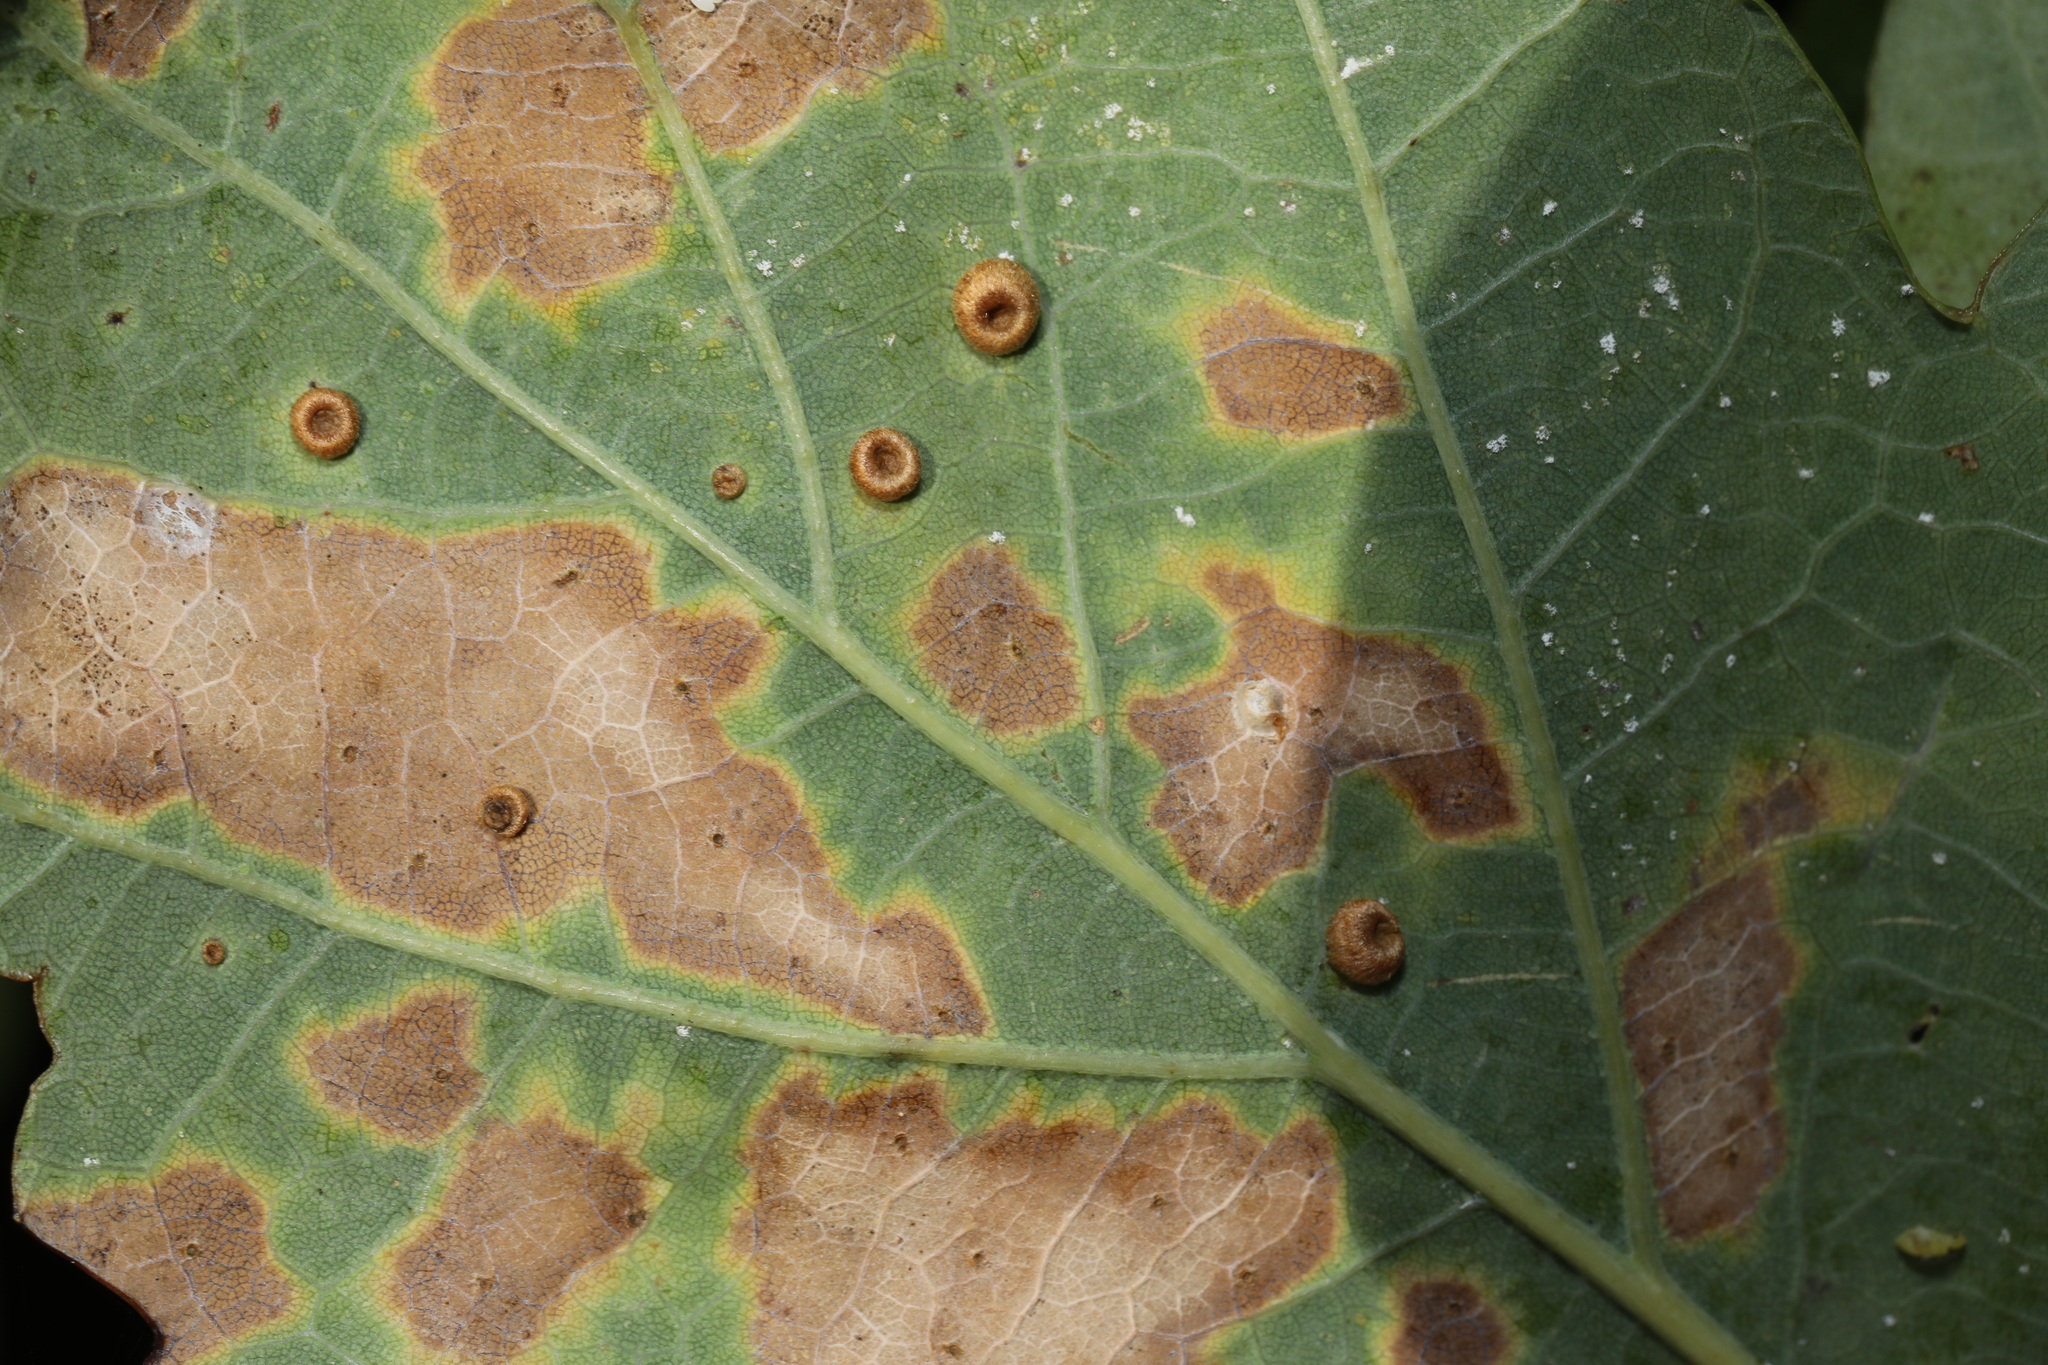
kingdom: Animalia
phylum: Arthropoda
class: Insecta
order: Hymenoptera
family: Cynipidae
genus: Neuroterus
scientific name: Neuroterus numismalis
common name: Silk-button spangle gall
